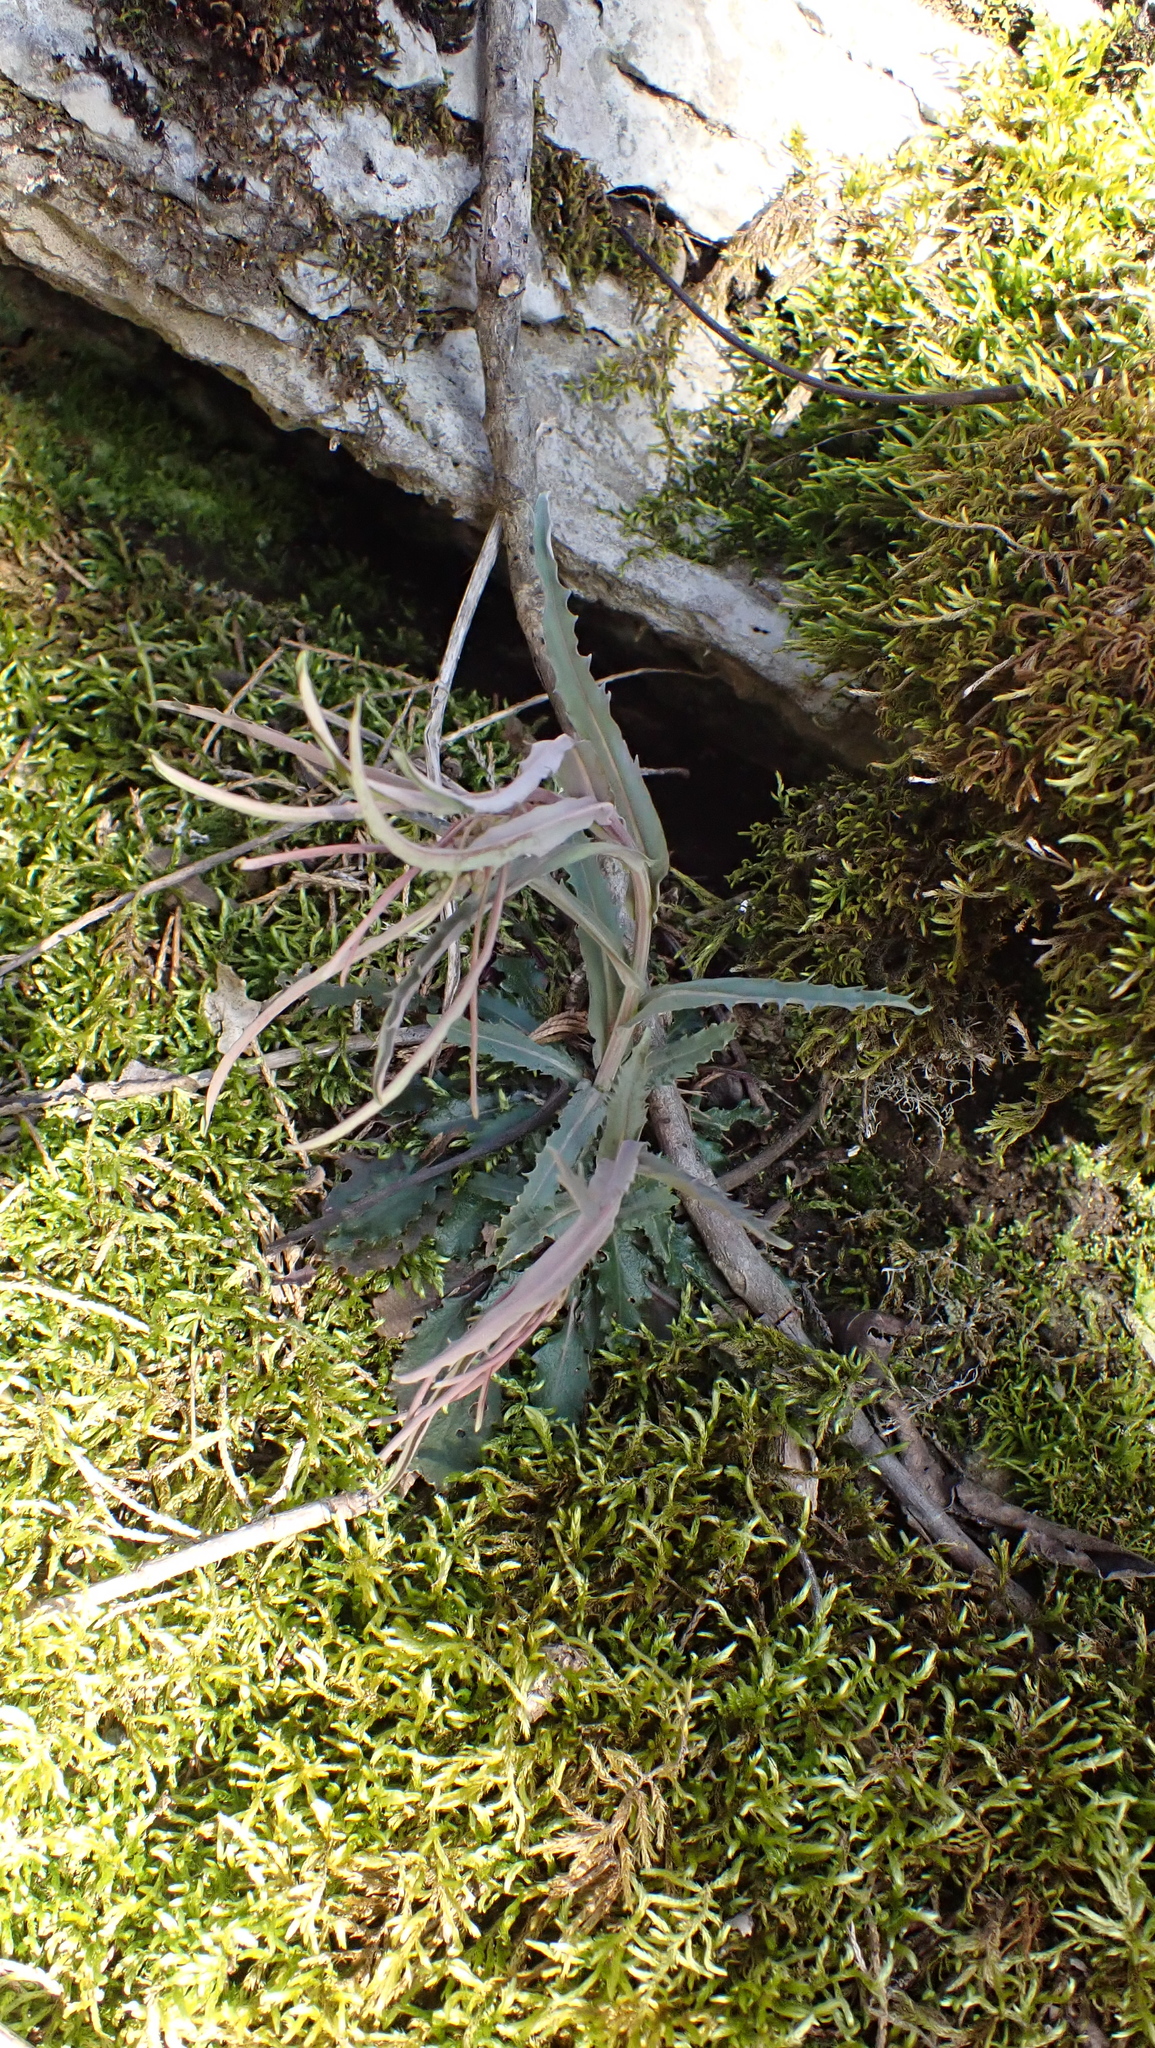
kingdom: Plantae
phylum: Tracheophyta
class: Magnoliopsida
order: Brassicales
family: Brassicaceae
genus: Borodinia
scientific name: Borodinia laevigata
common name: Smooth rockcress
